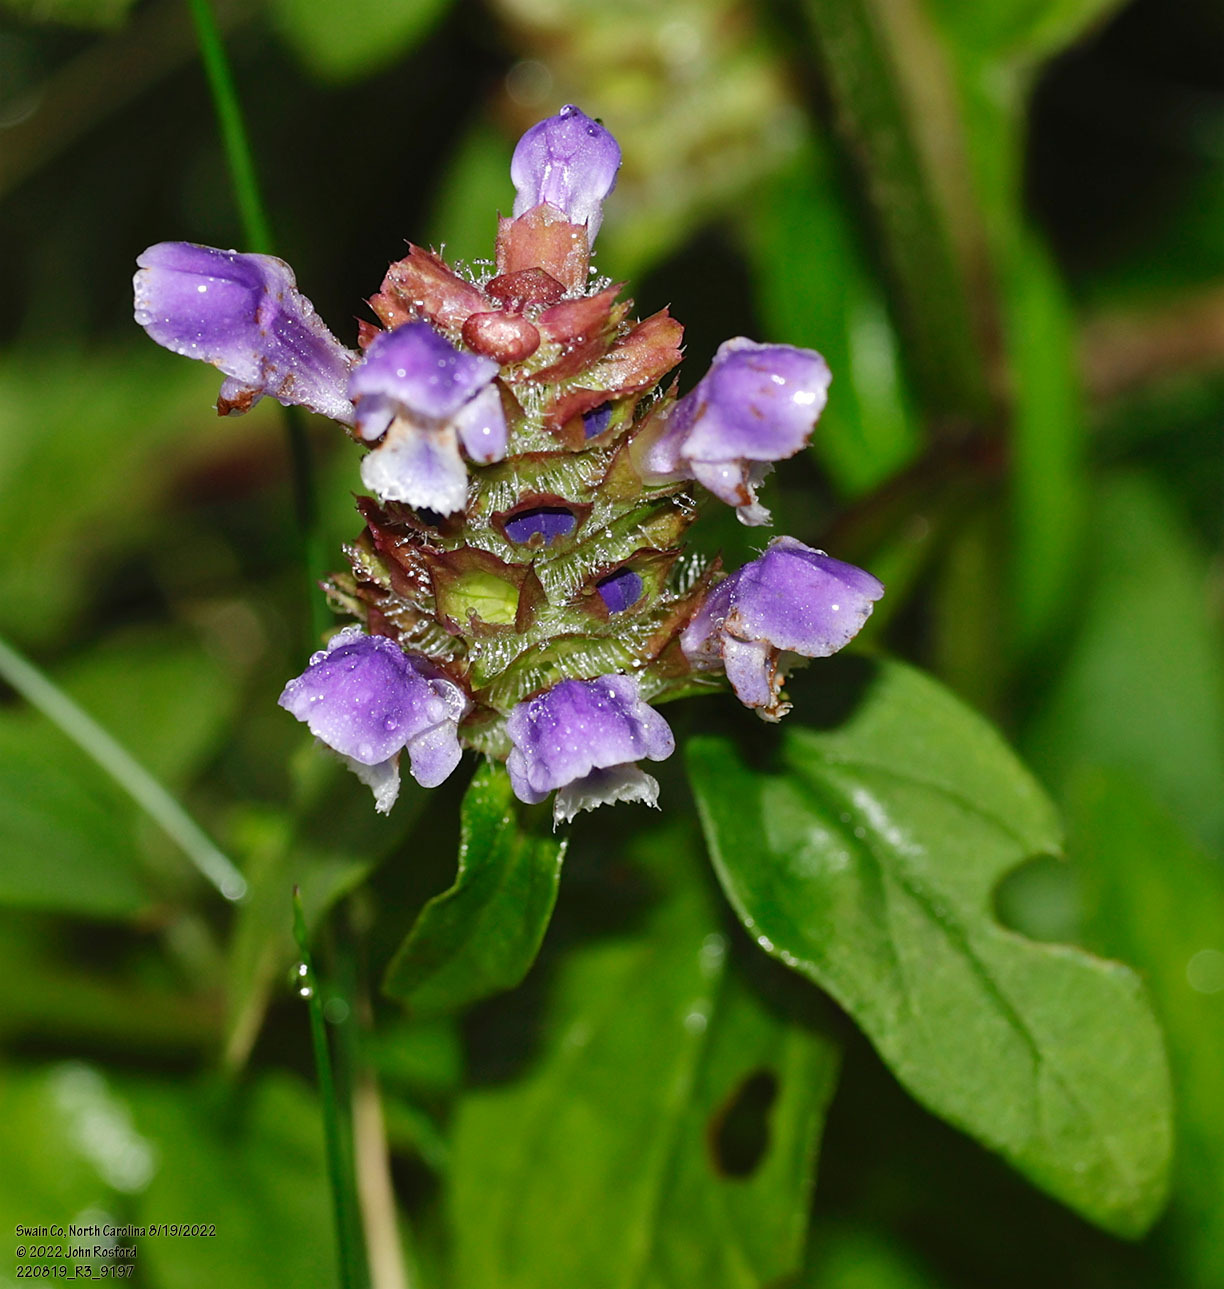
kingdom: Plantae
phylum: Tracheophyta
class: Magnoliopsida
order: Lamiales
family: Lamiaceae
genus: Prunella
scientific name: Prunella vulgaris
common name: Heal-all
